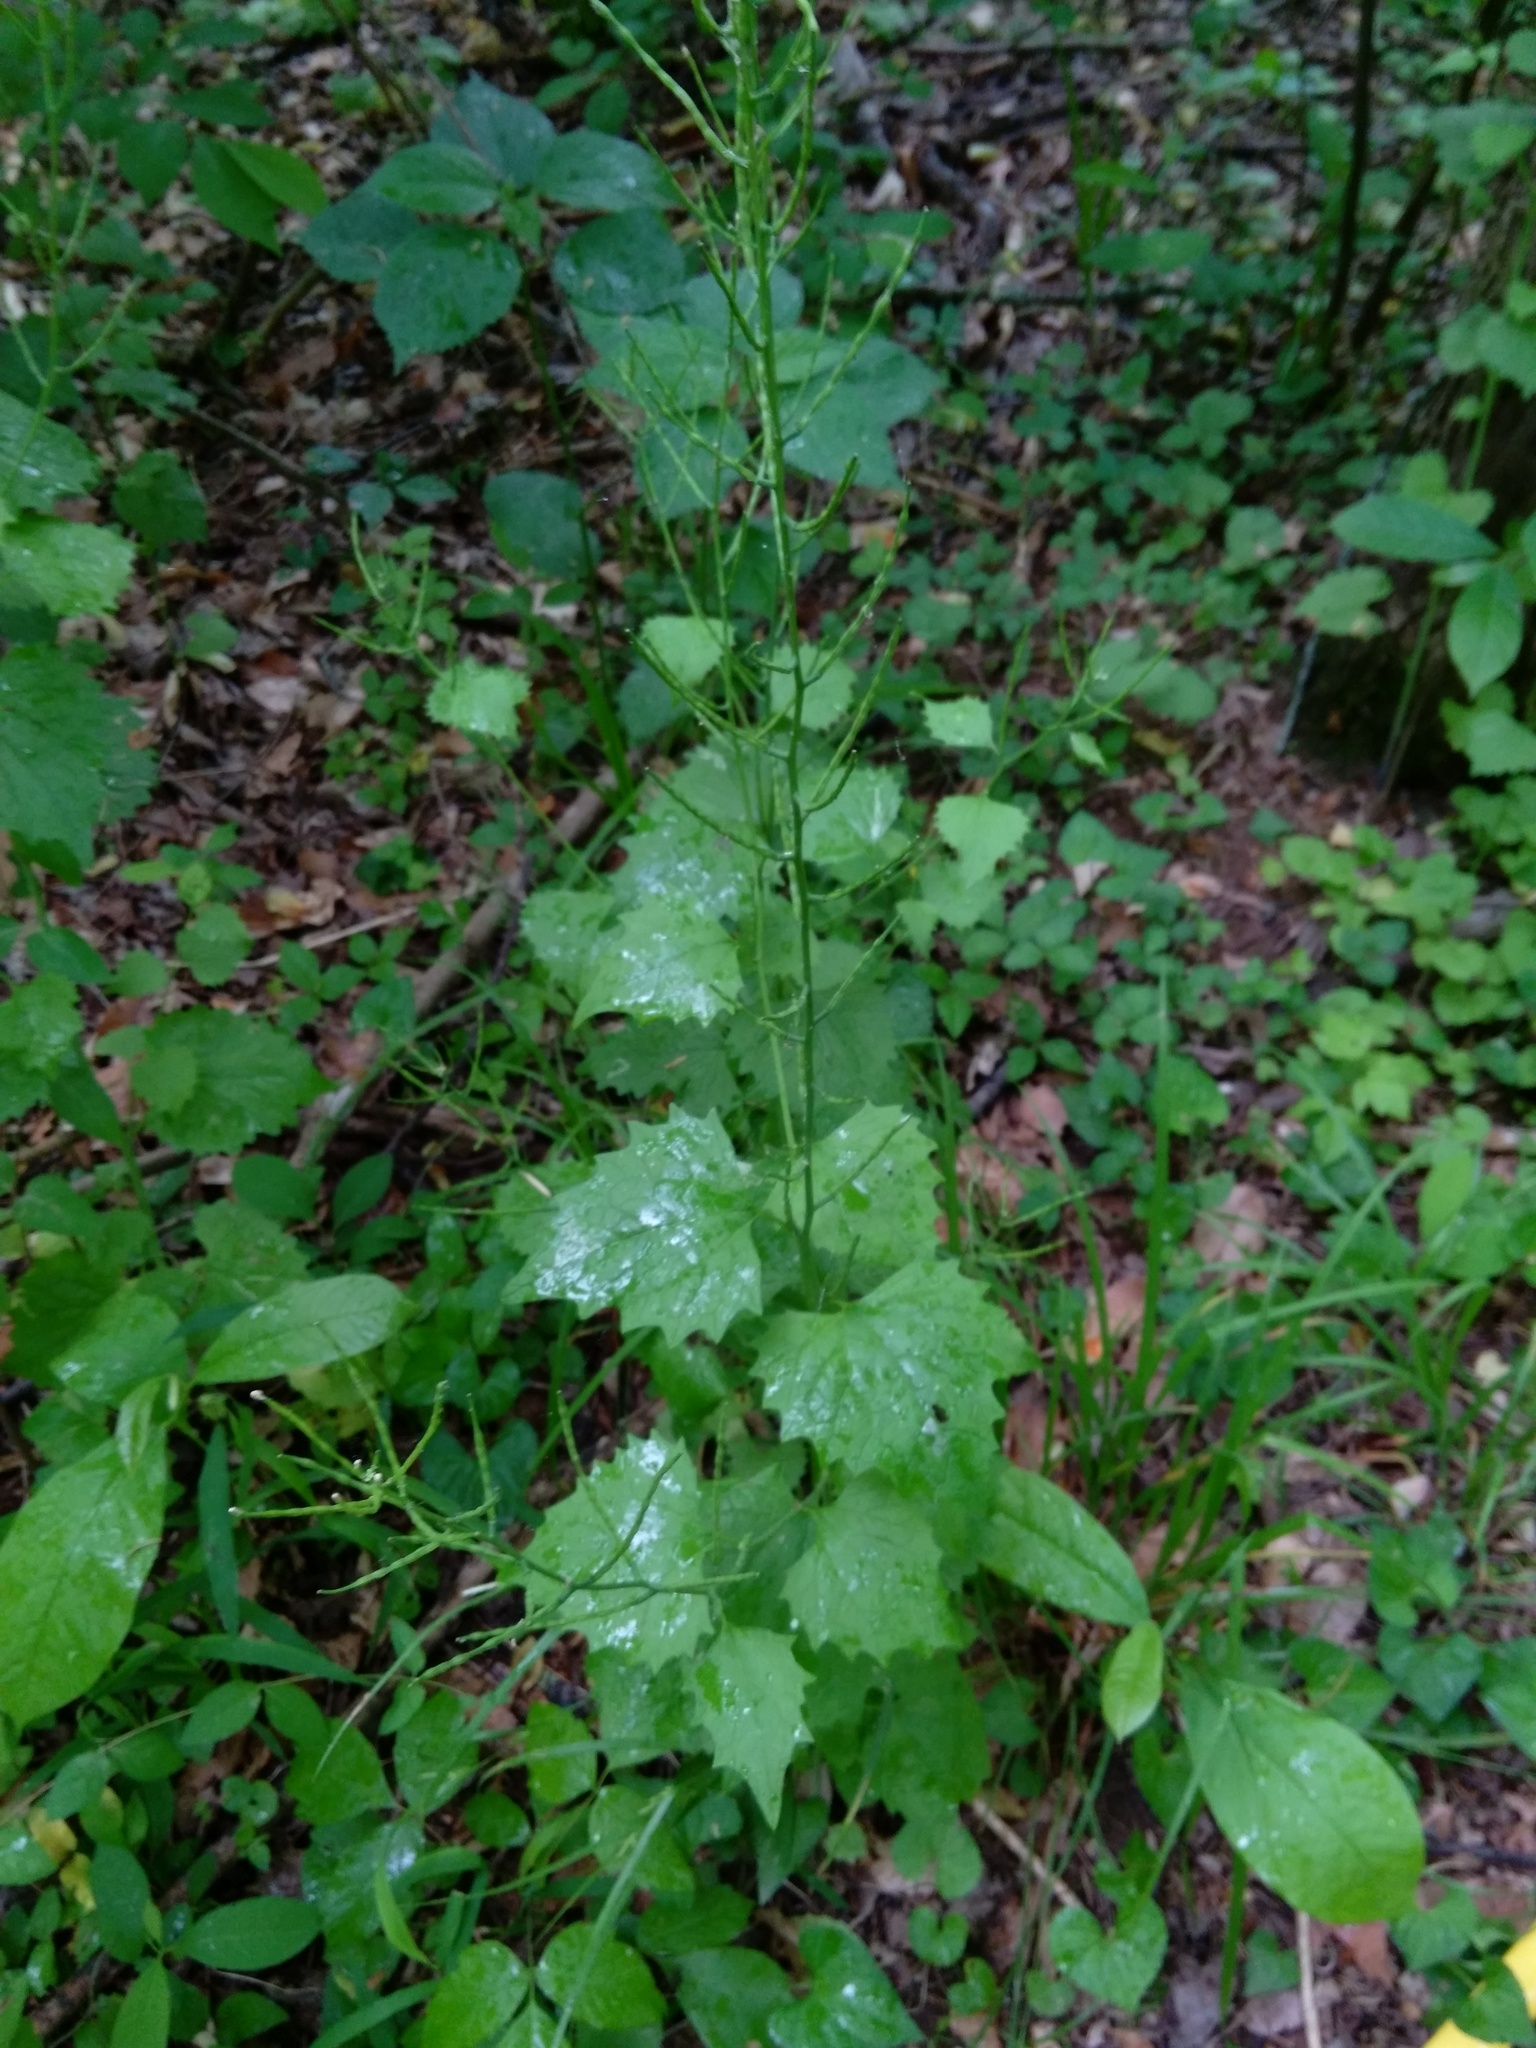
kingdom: Plantae
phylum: Tracheophyta
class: Magnoliopsida
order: Brassicales
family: Brassicaceae
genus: Alliaria
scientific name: Alliaria petiolata
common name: Garlic mustard
